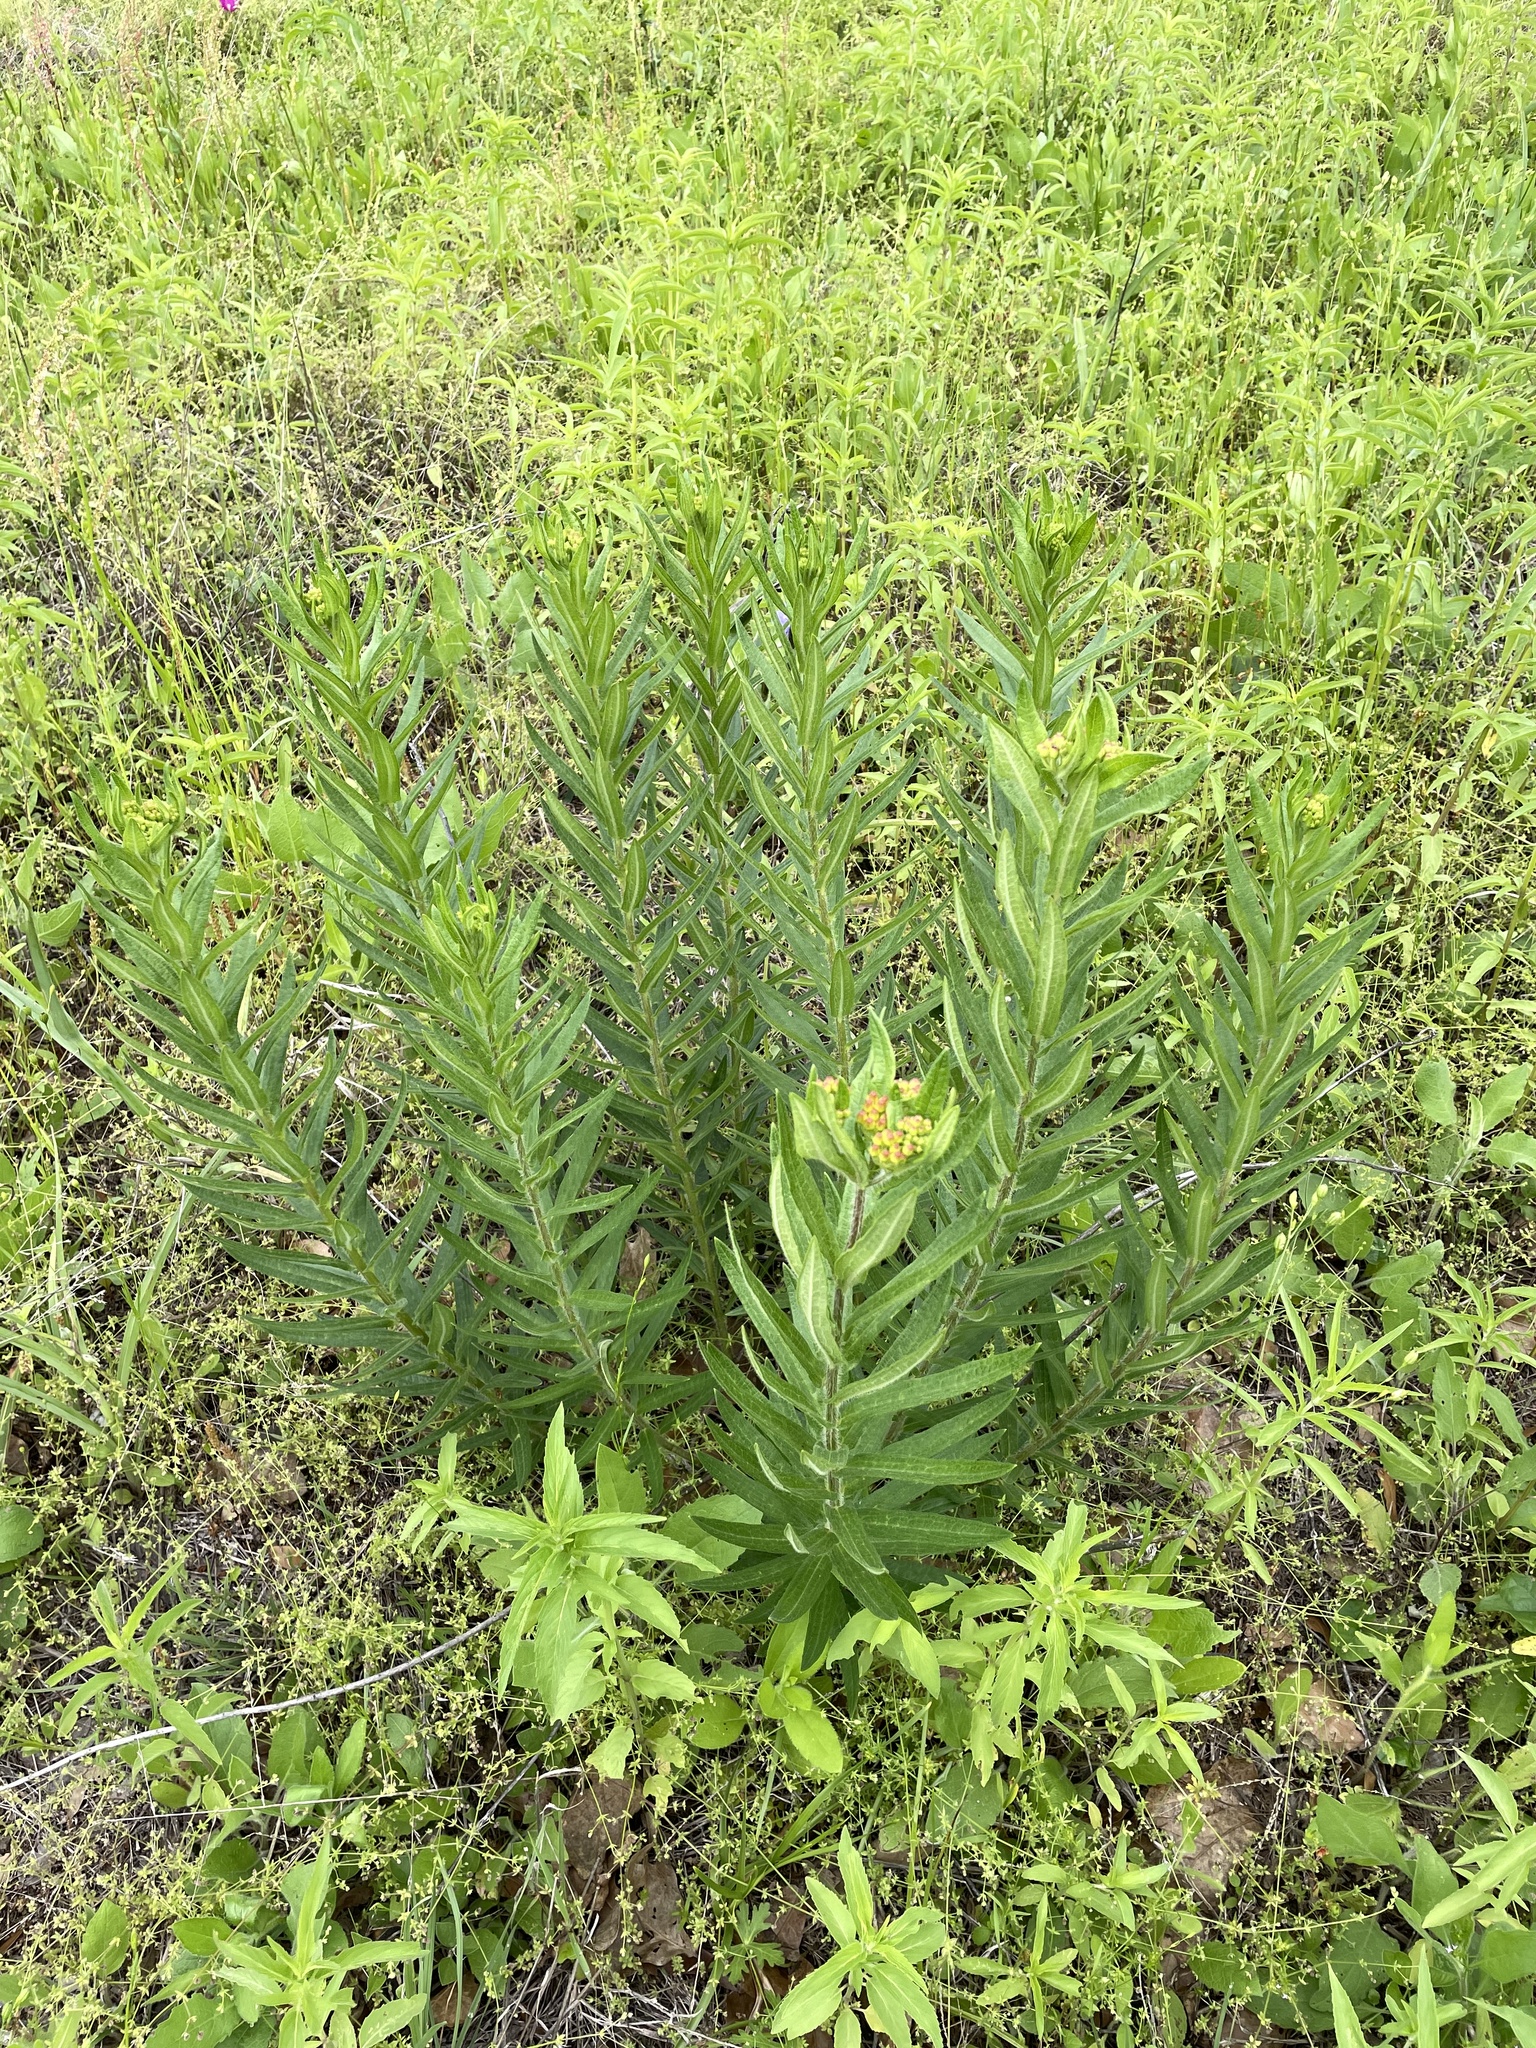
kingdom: Plantae
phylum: Tracheophyta
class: Magnoliopsida
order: Gentianales
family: Apocynaceae
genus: Asclepias
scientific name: Asclepias tuberosa
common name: Butterfly milkweed
